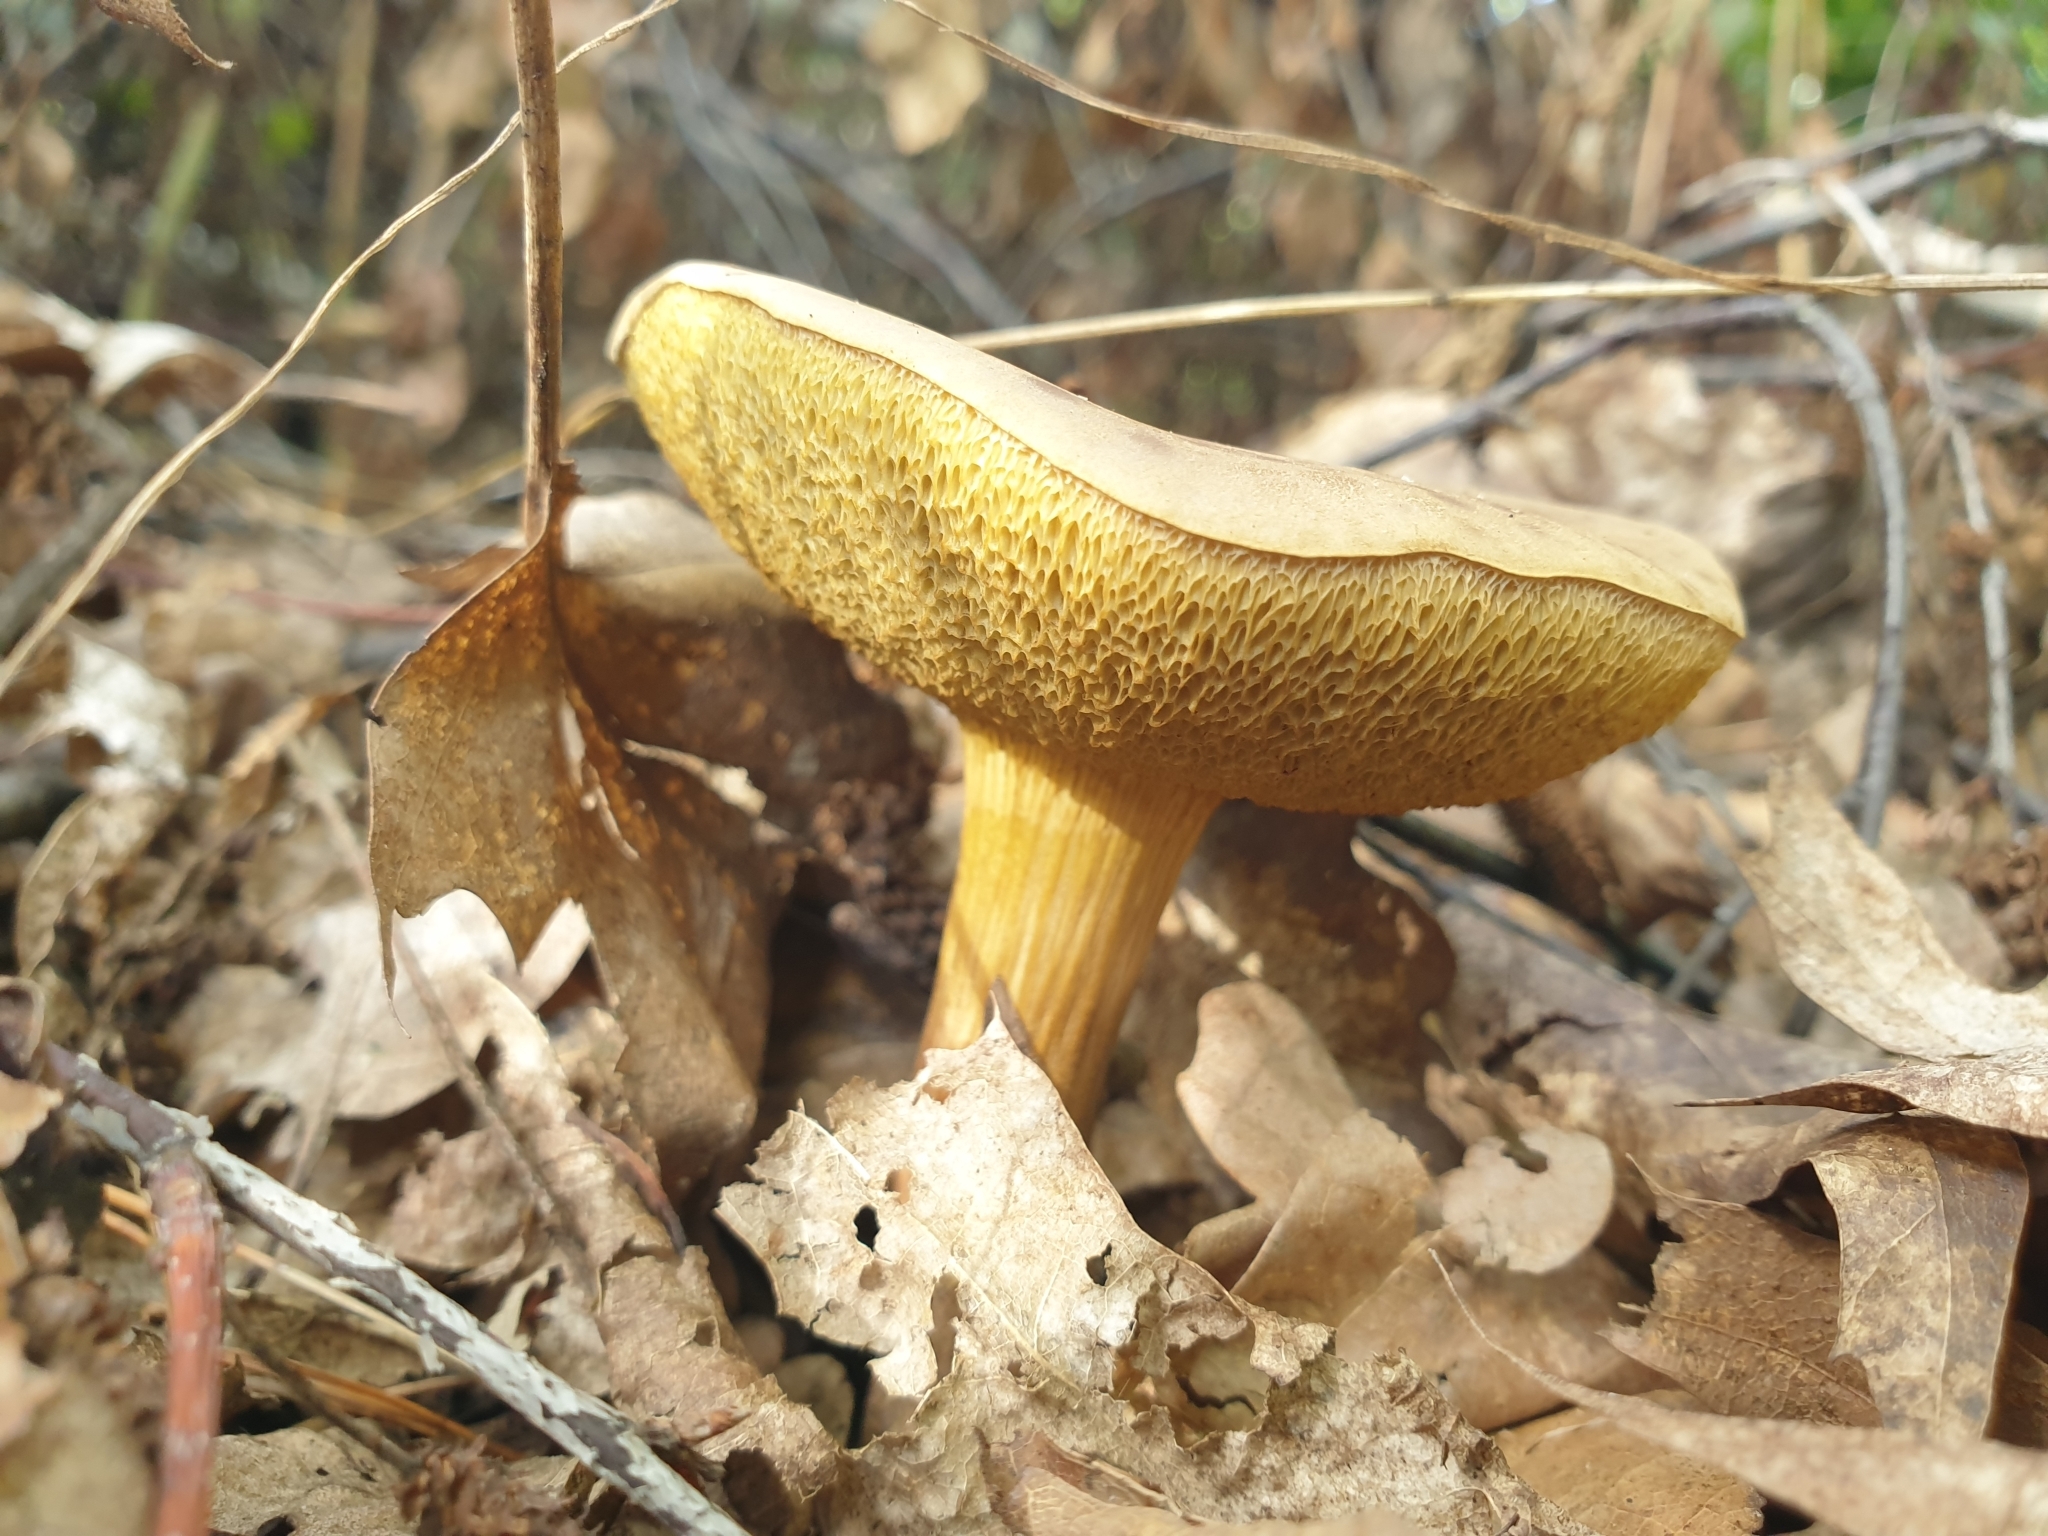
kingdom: Fungi
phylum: Basidiomycota
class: Agaricomycetes
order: Boletales
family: Boletaceae
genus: Xerocomus
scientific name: Xerocomus subtomentosus
